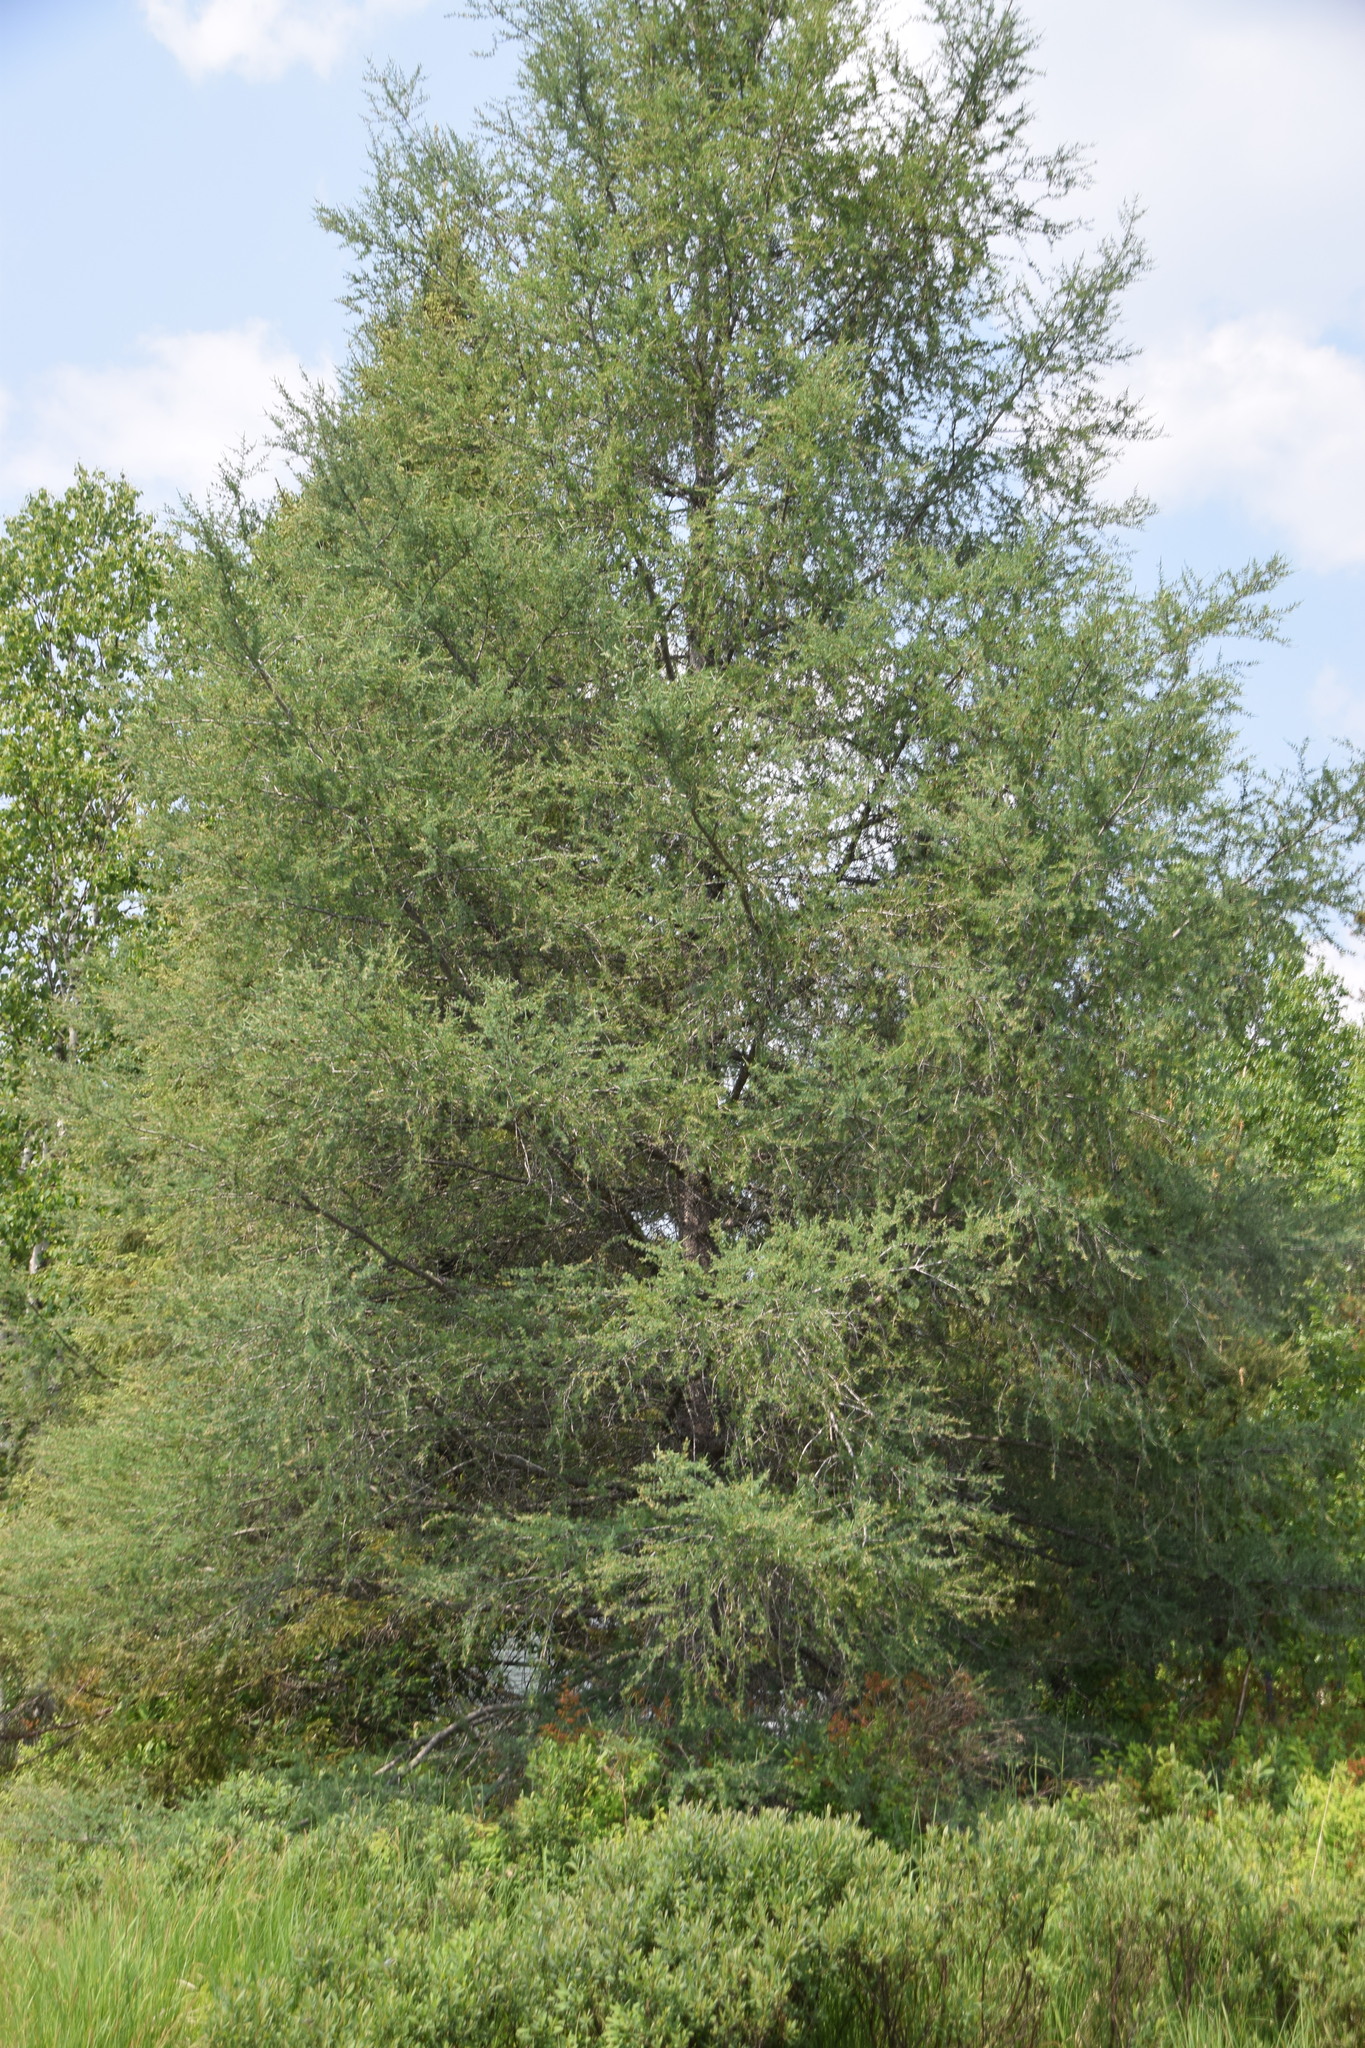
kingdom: Plantae
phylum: Tracheophyta
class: Pinopsida
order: Pinales
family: Pinaceae
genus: Larix
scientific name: Larix laricina
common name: American larch
